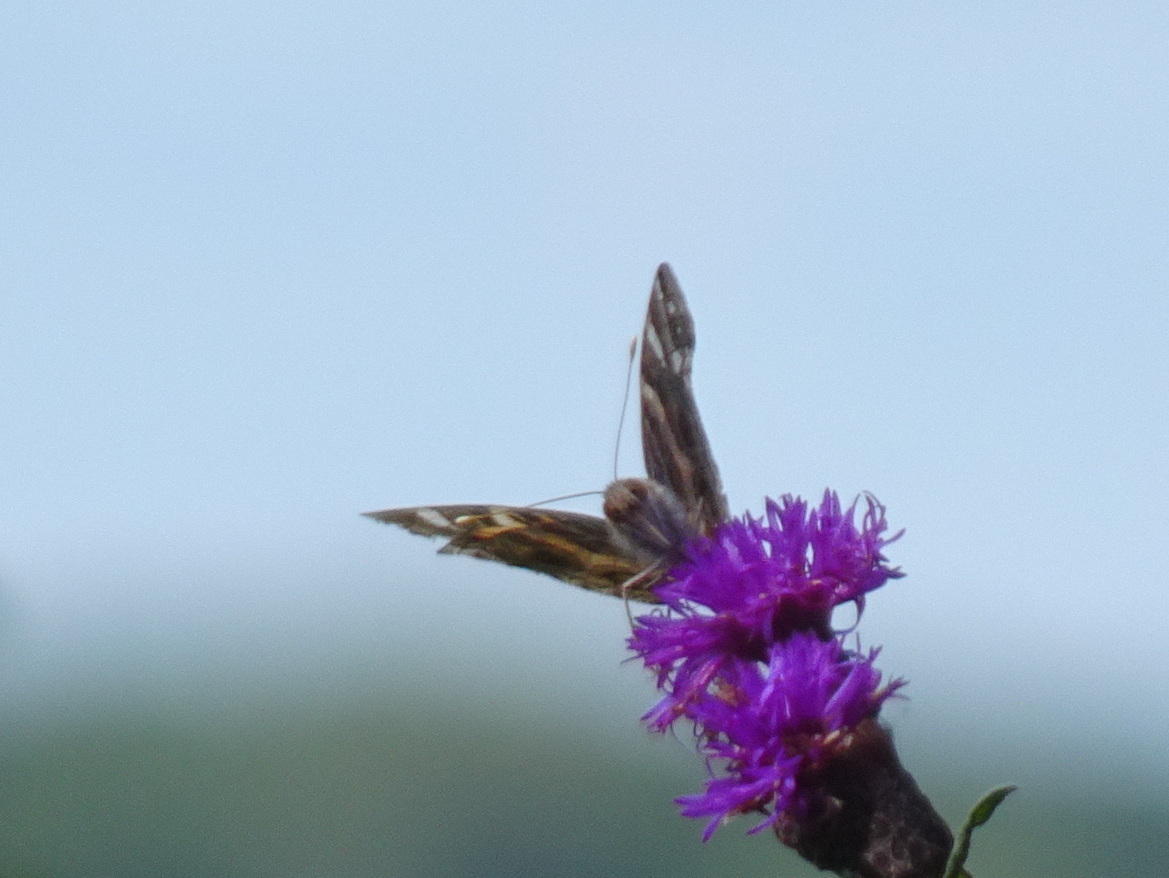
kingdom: Animalia
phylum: Arthropoda
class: Insecta
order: Lepidoptera
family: Nymphalidae
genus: Vanessa
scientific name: Vanessa virginiensis
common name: American lady
